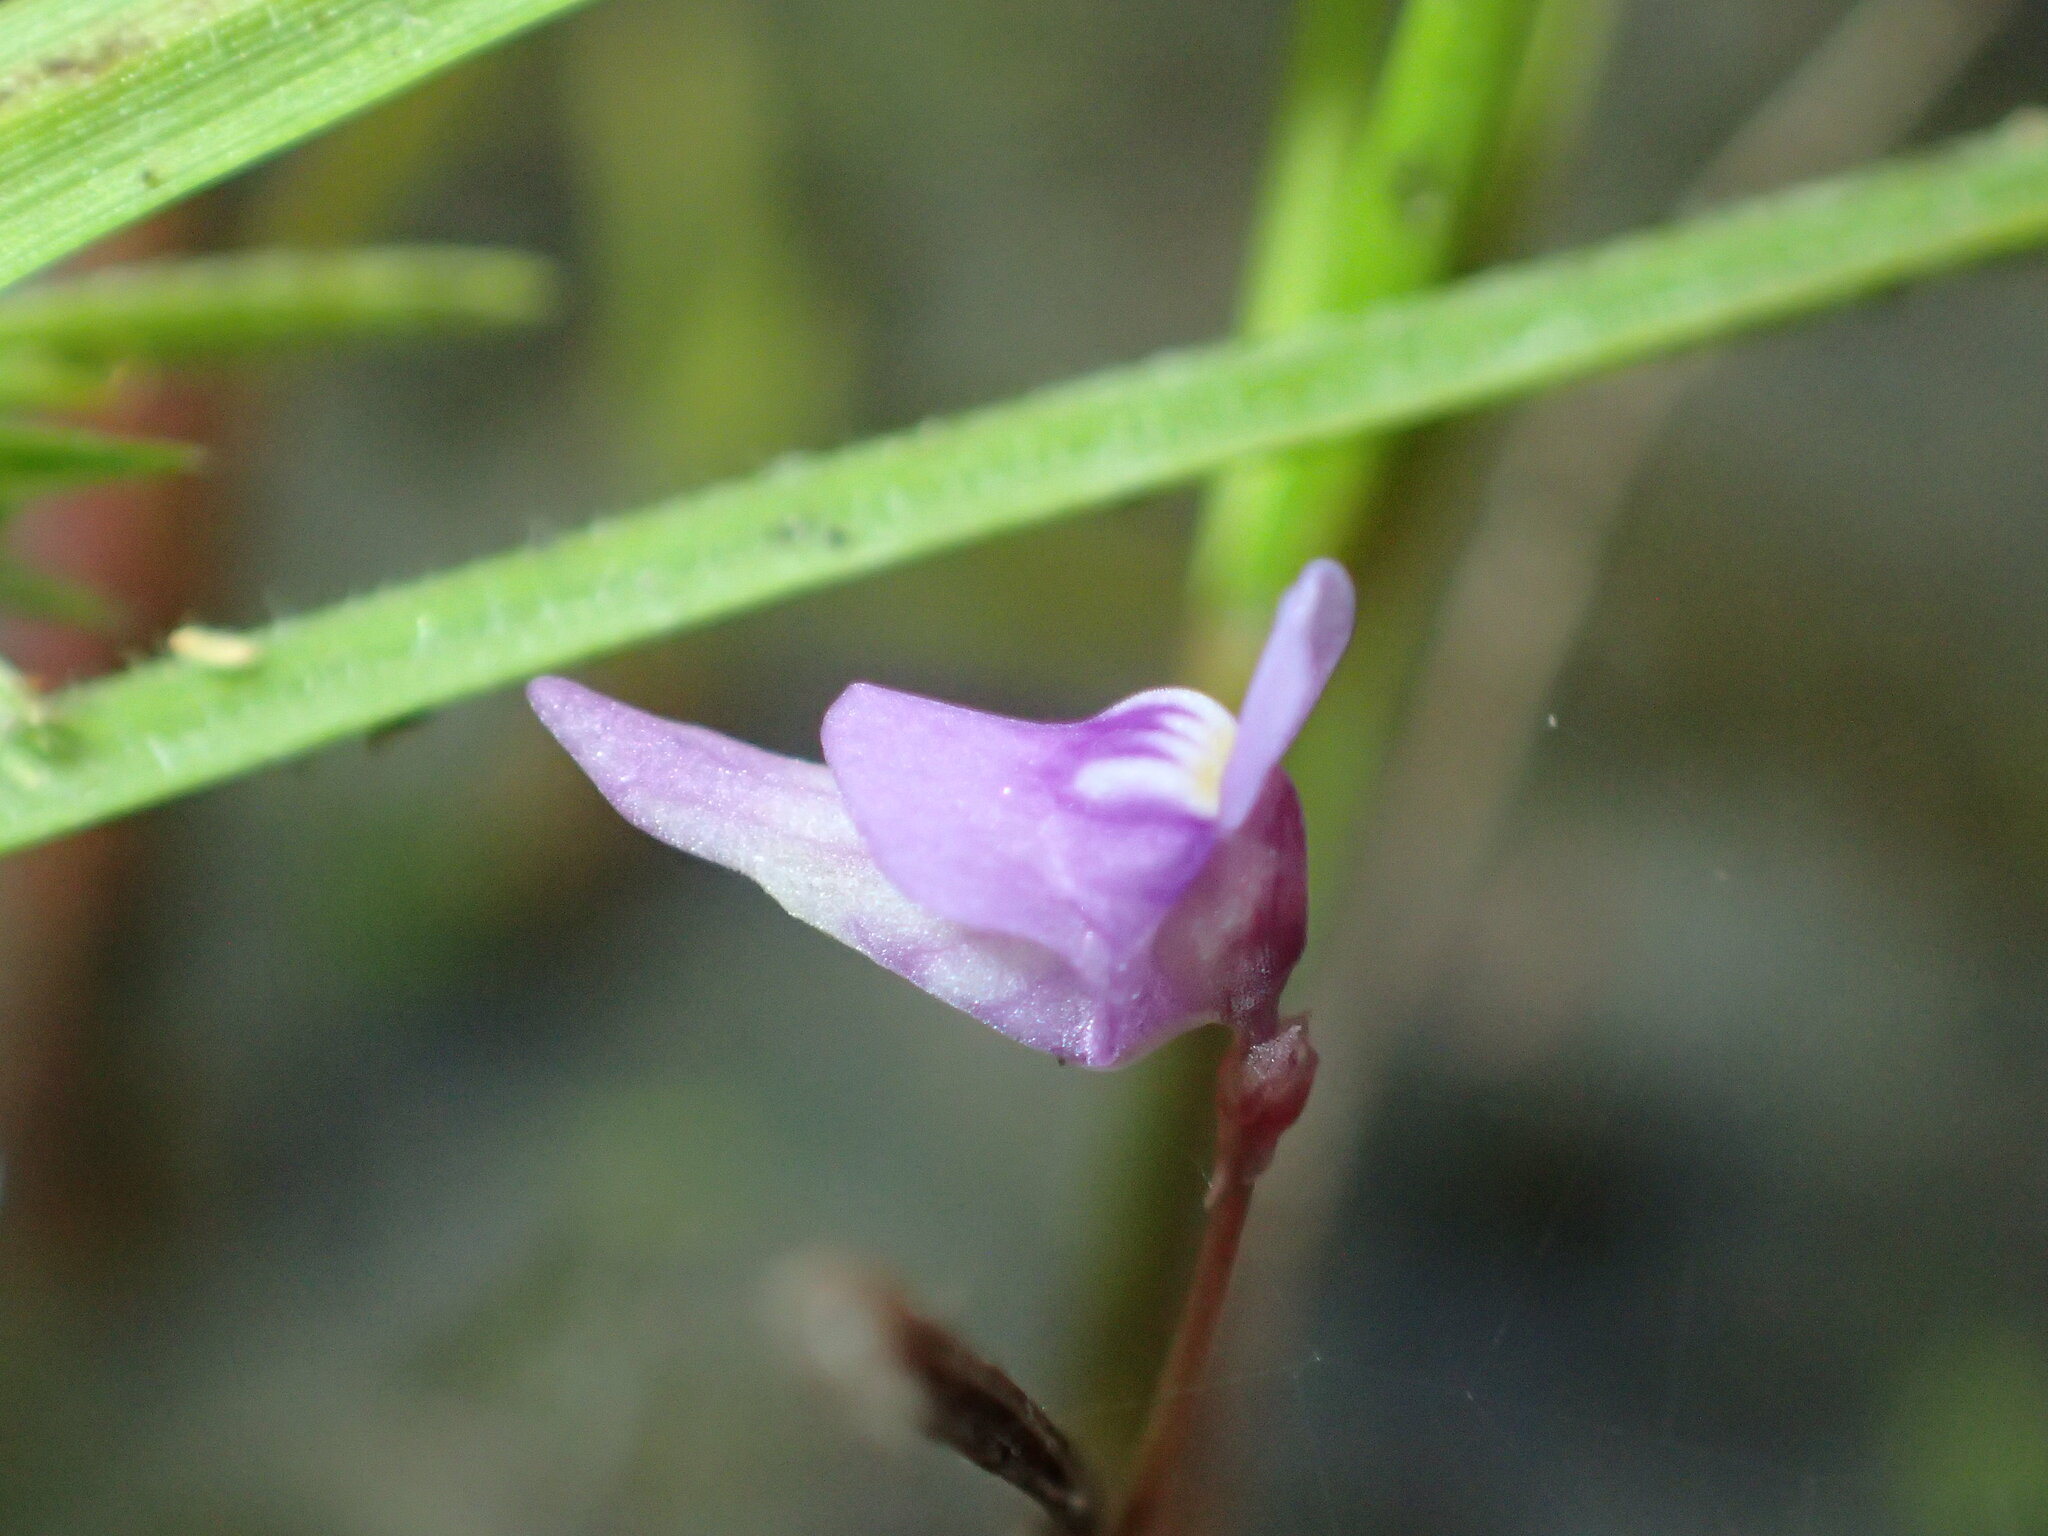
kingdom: Plantae
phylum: Tracheophyta
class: Magnoliopsida
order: Lamiales
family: Lentibulariaceae
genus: Utricularia
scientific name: Utricularia caerulea
